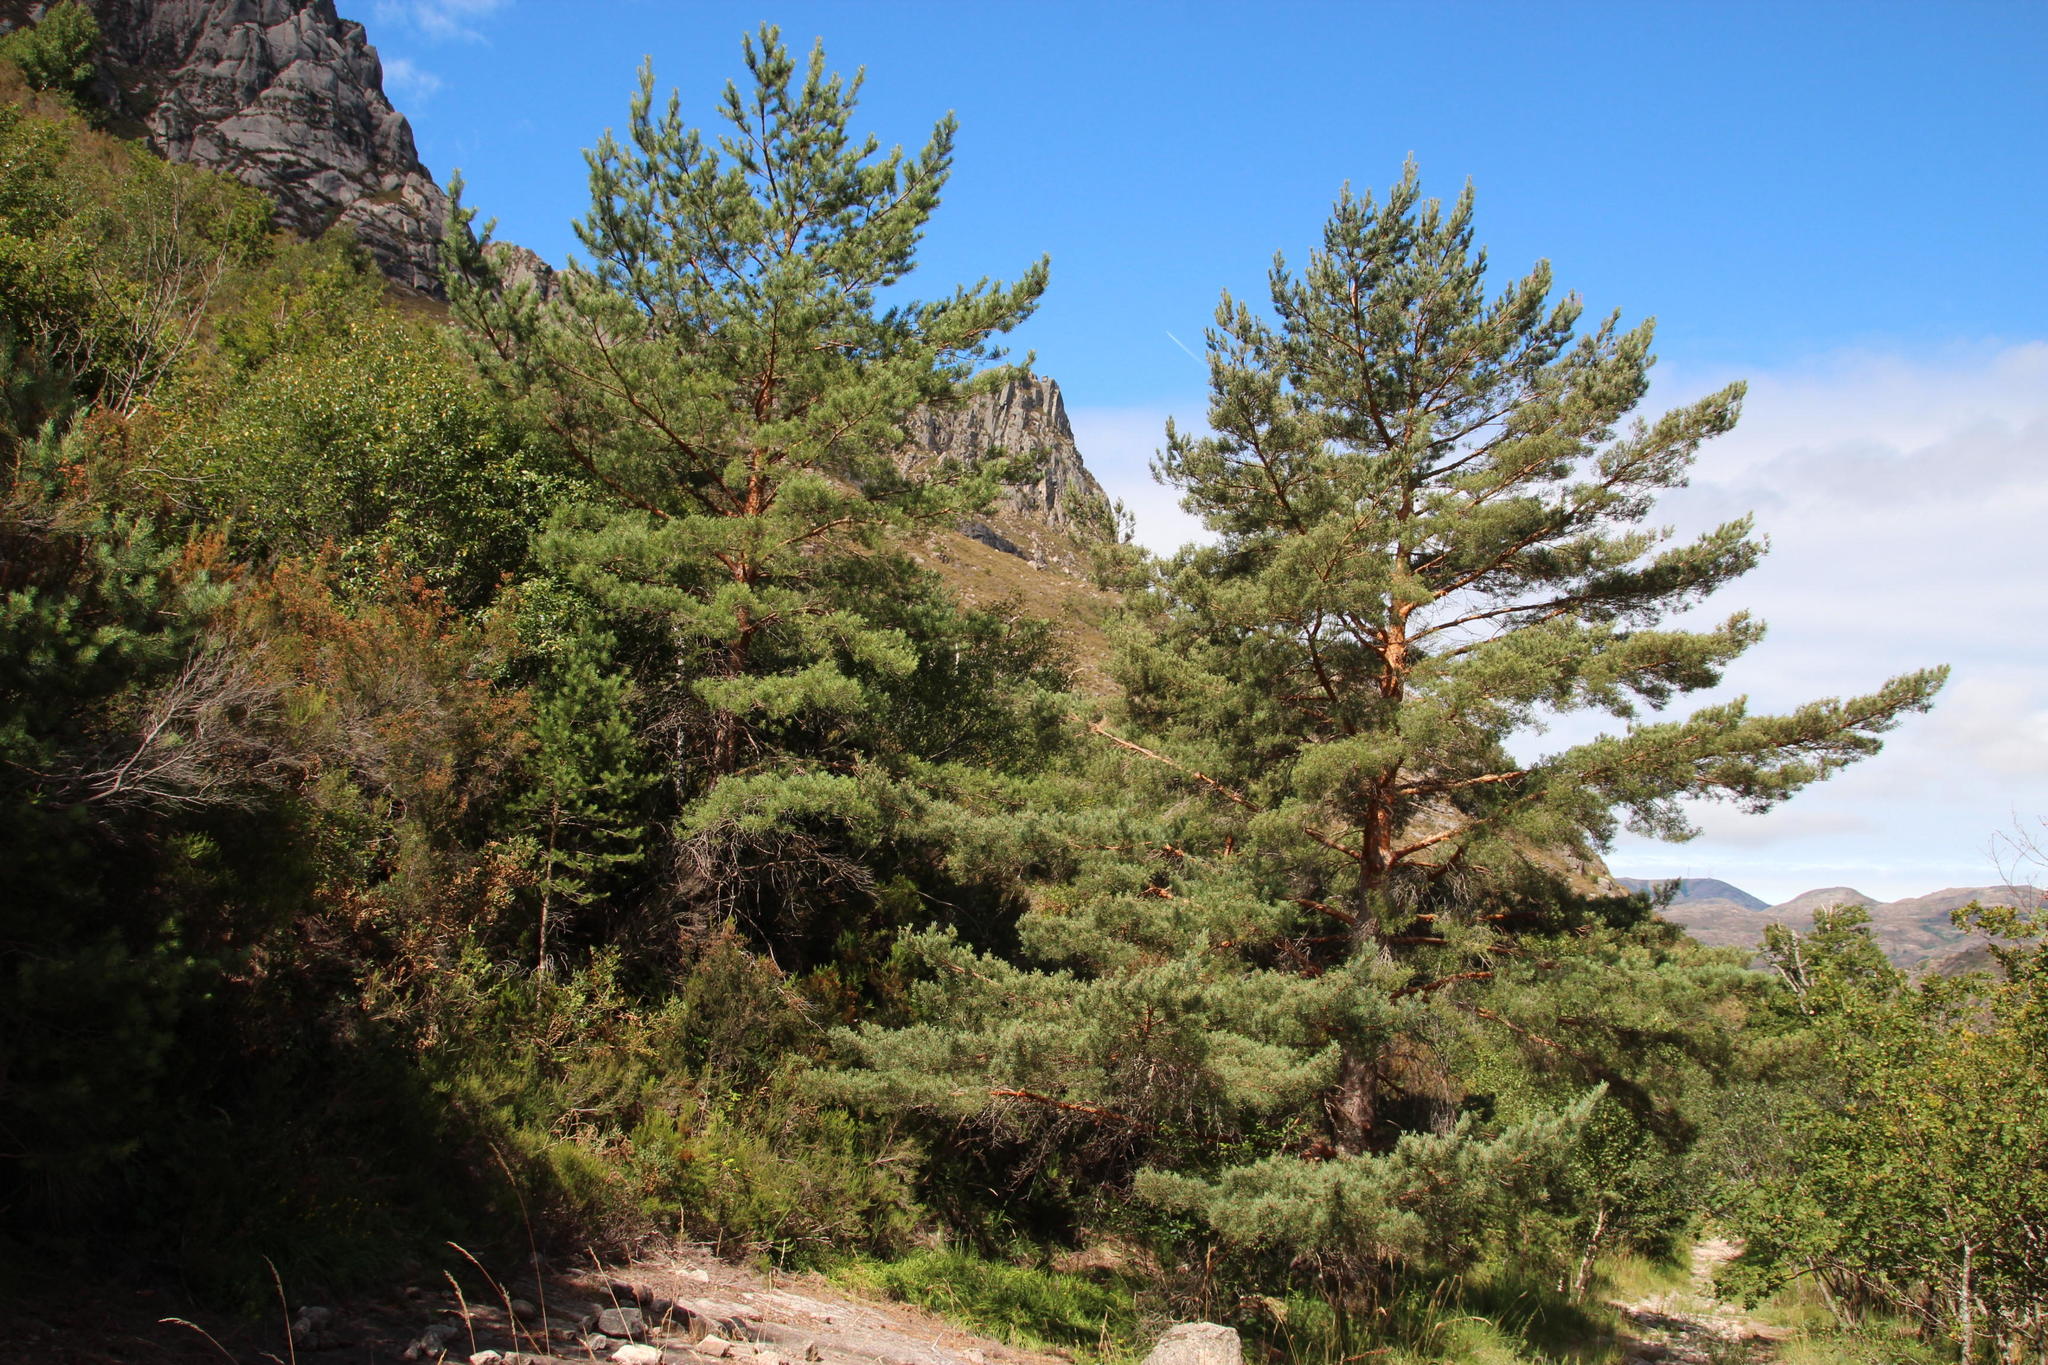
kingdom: Plantae
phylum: Tracheophyta
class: Pinopsida
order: Pinales
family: Pinaceae
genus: Pinus
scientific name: Pinus sylvestris
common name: Scots pine
